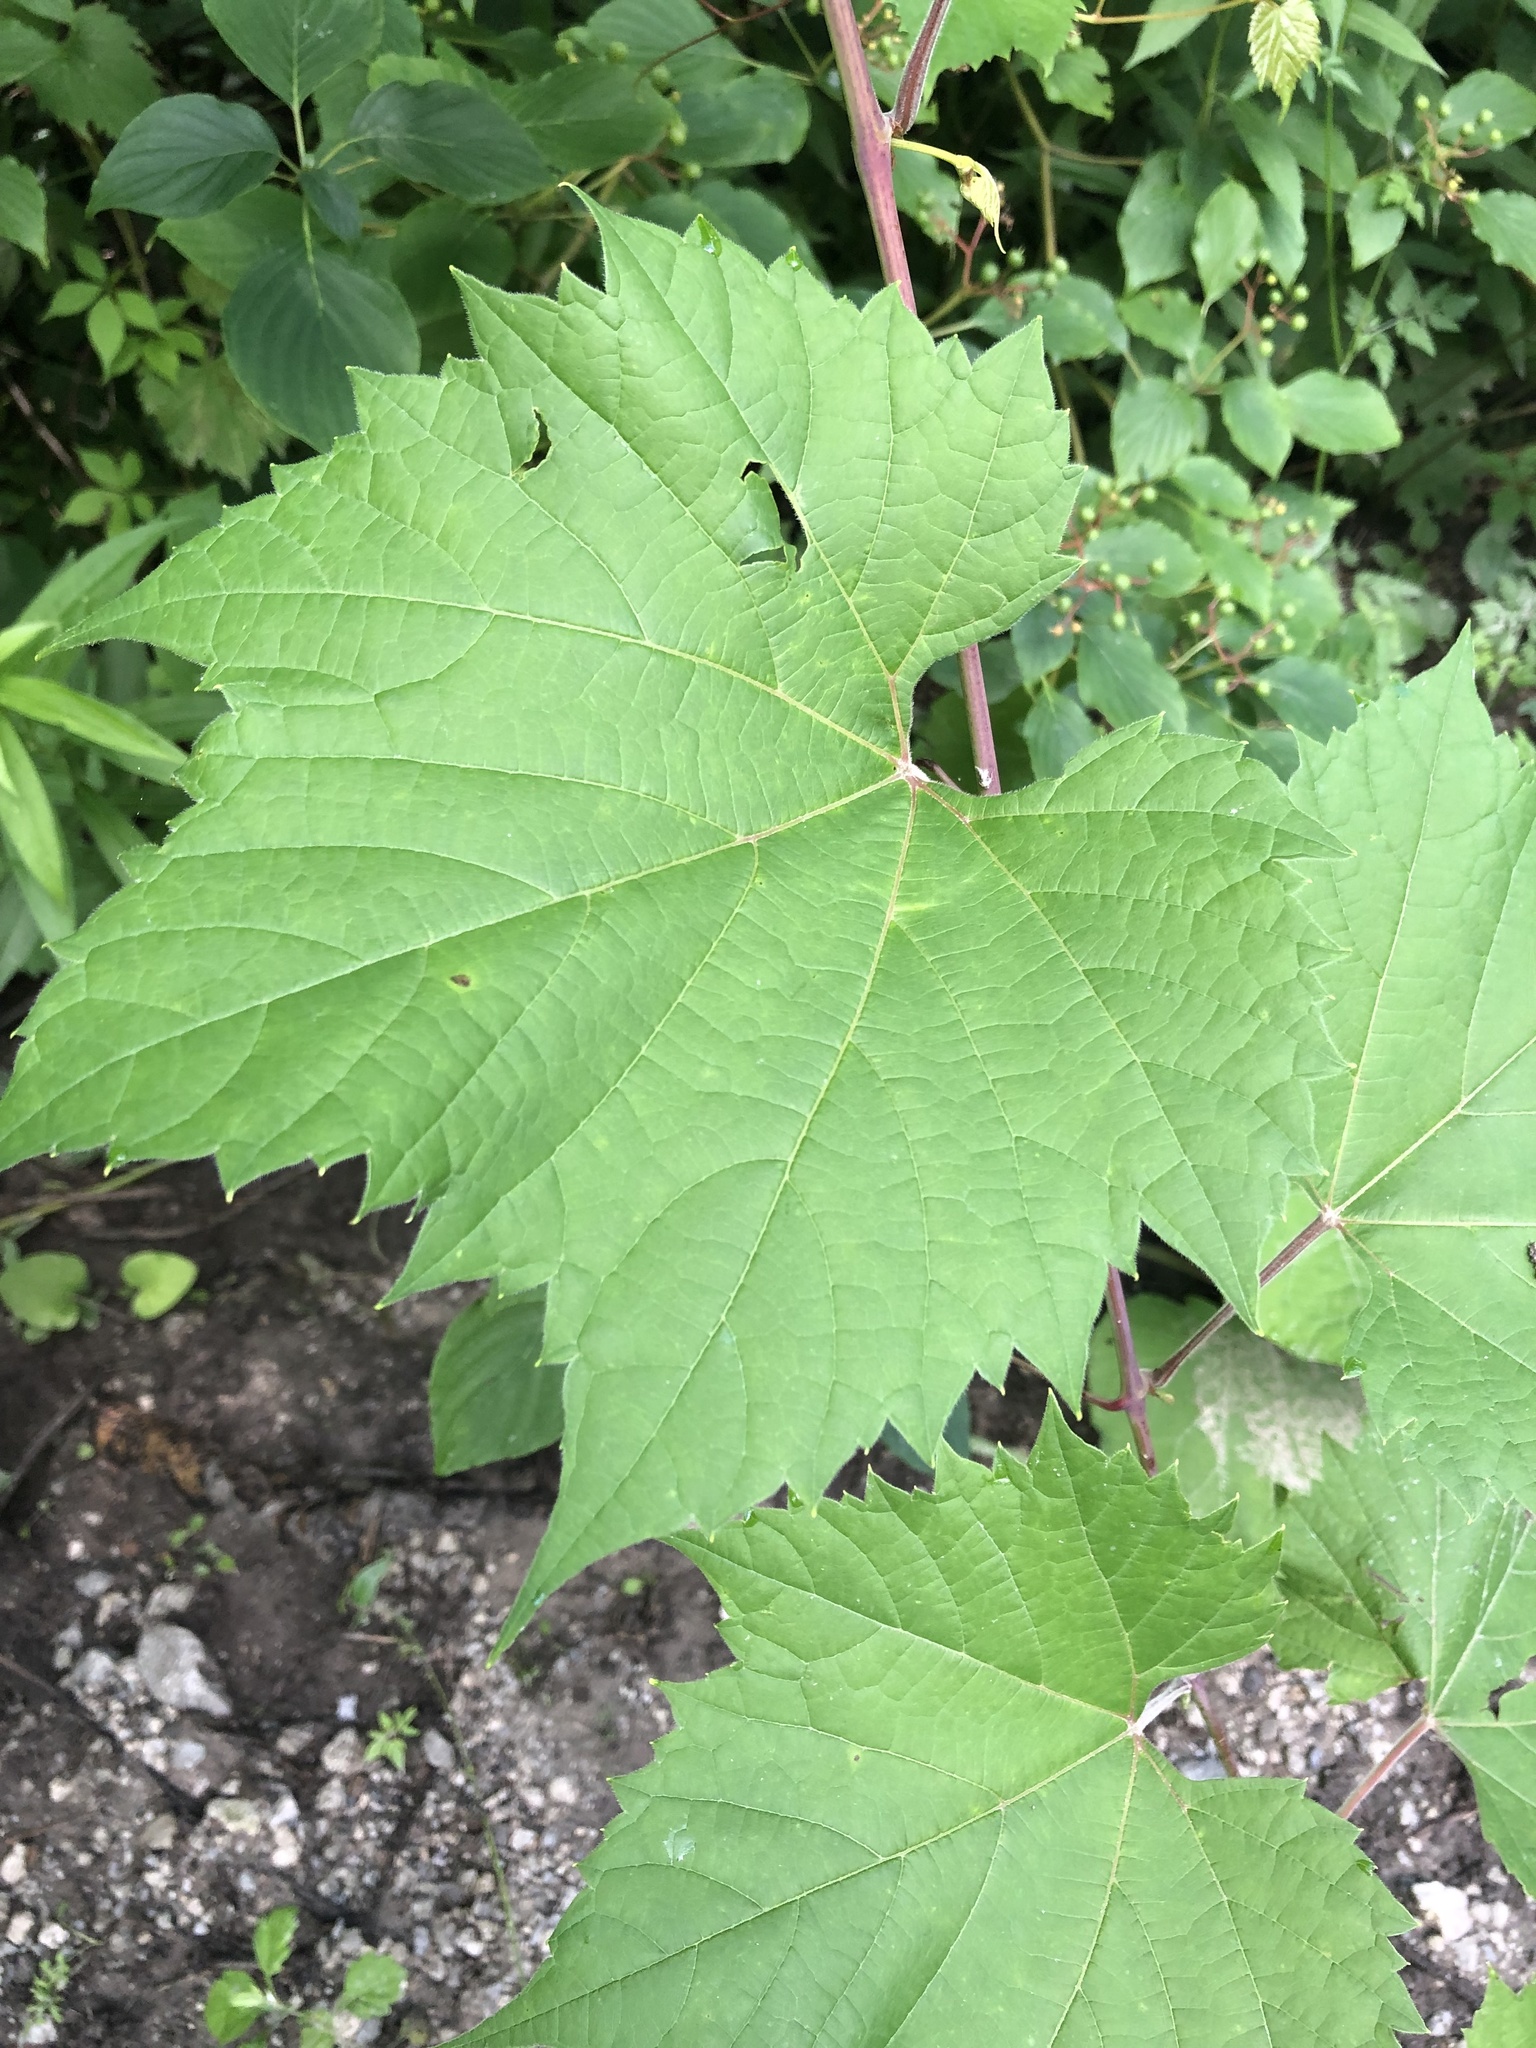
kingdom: Plantae
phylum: Tracheophyta
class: Magnoliopsida
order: Vitales
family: Vitaceae
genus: Vitis
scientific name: Vitis riparia
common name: Frost grape
